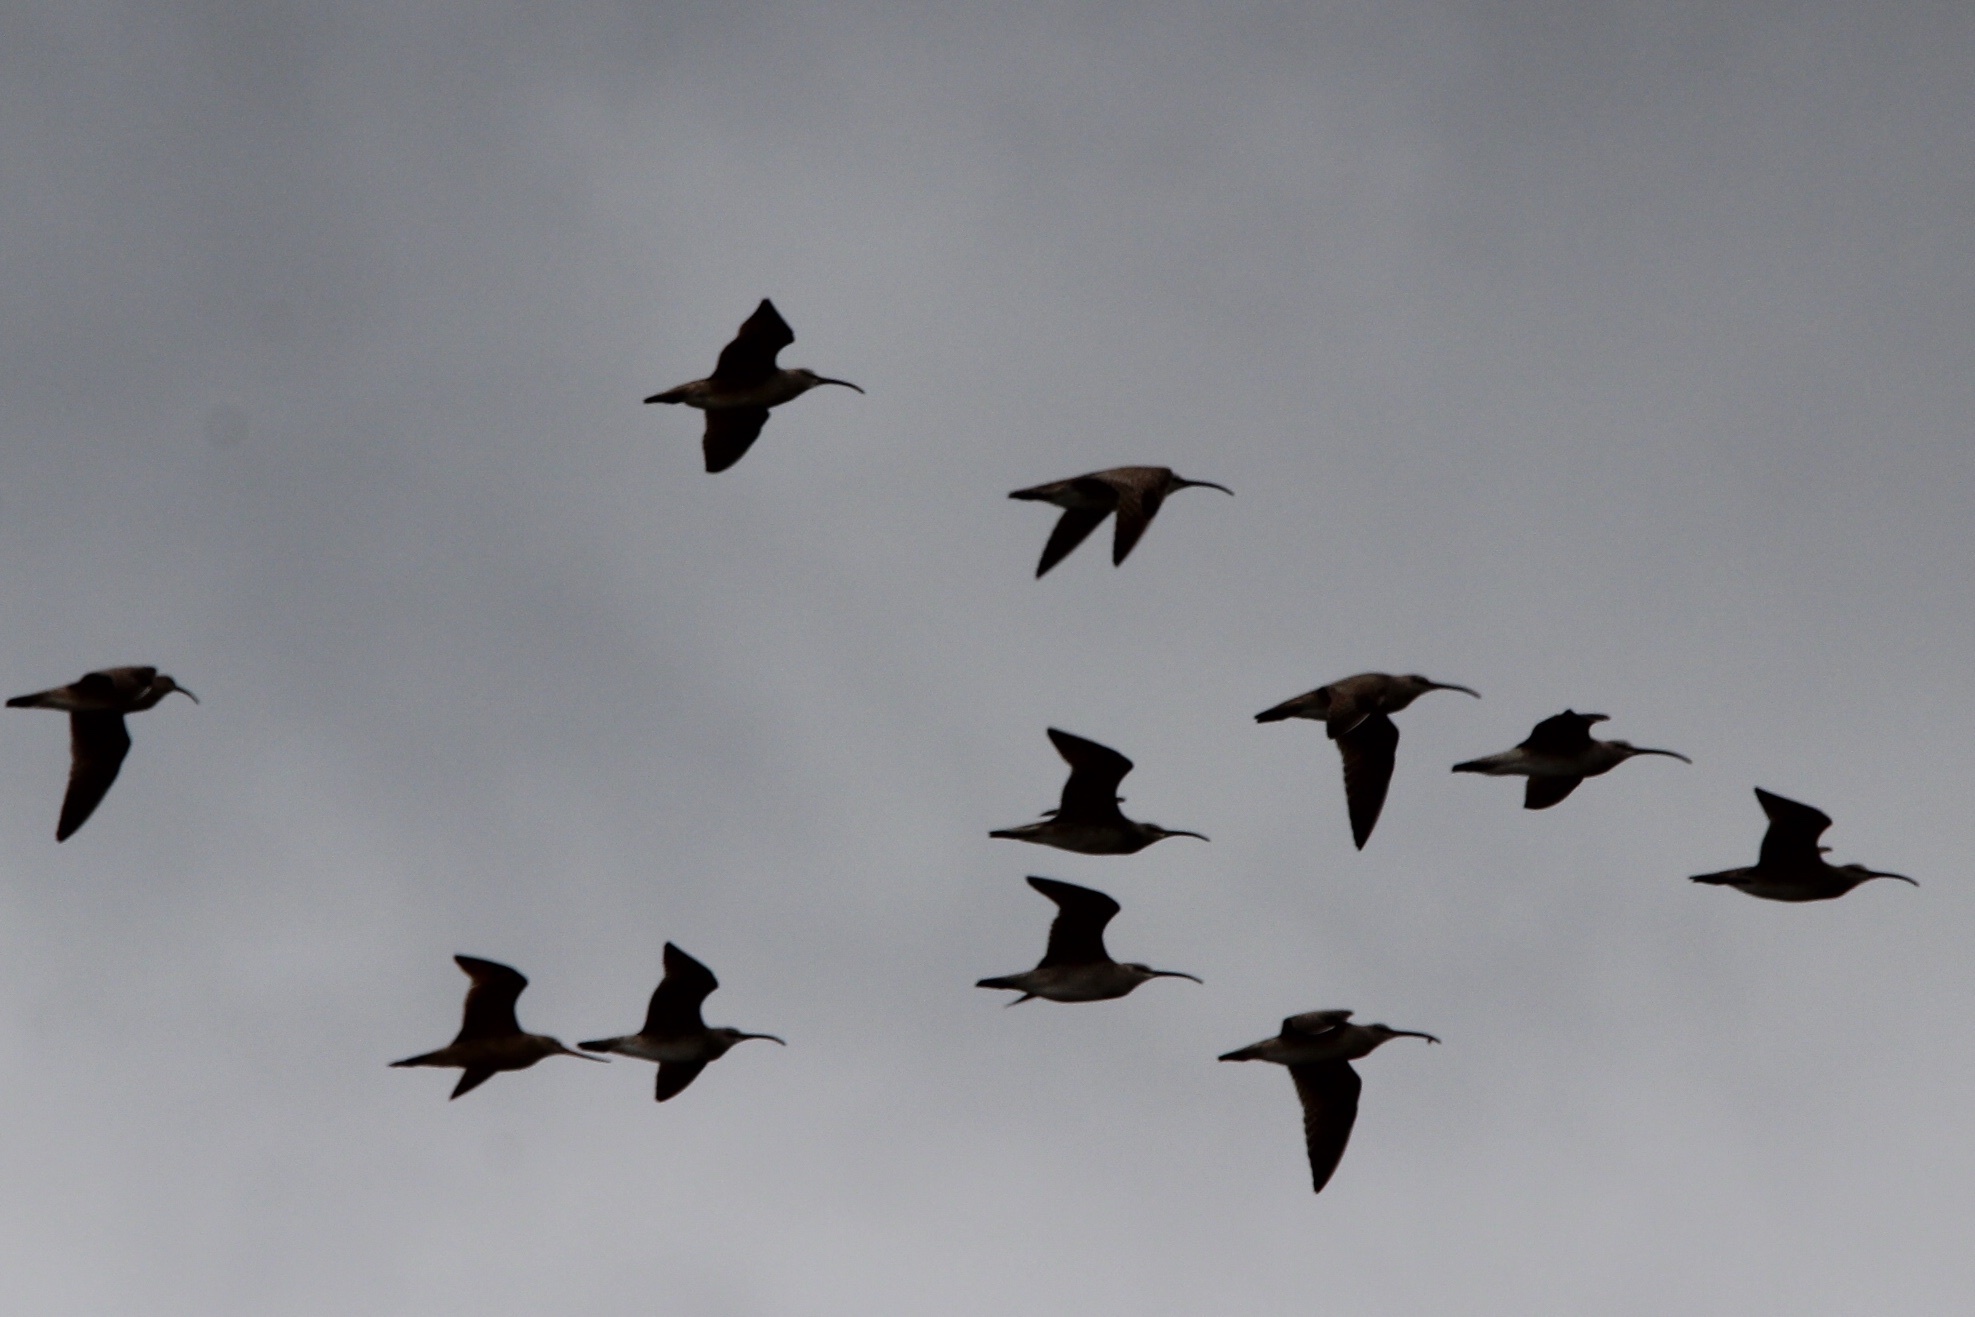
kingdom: Animalia
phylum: Chordata
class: Aves
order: Charadriiformes
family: Scolopacidae
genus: Numenius
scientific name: Numenius phaeopus
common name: Whimbrel
